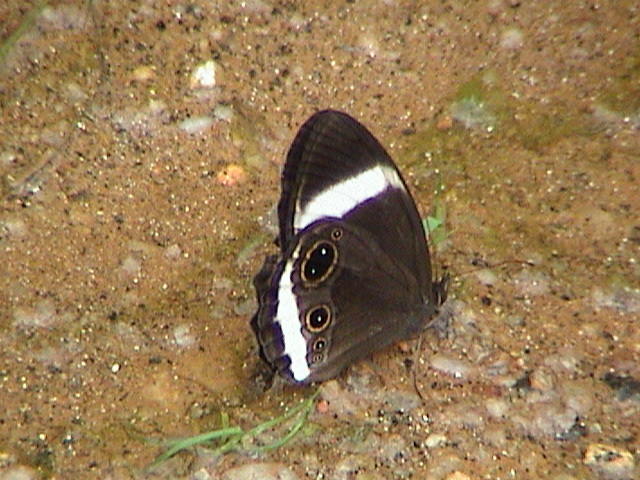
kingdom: Animalia
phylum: Arthropoda
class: Insecta
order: Lepidoptera
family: Nymphalidae
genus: Zipaetis
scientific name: Zipaetis saitis
